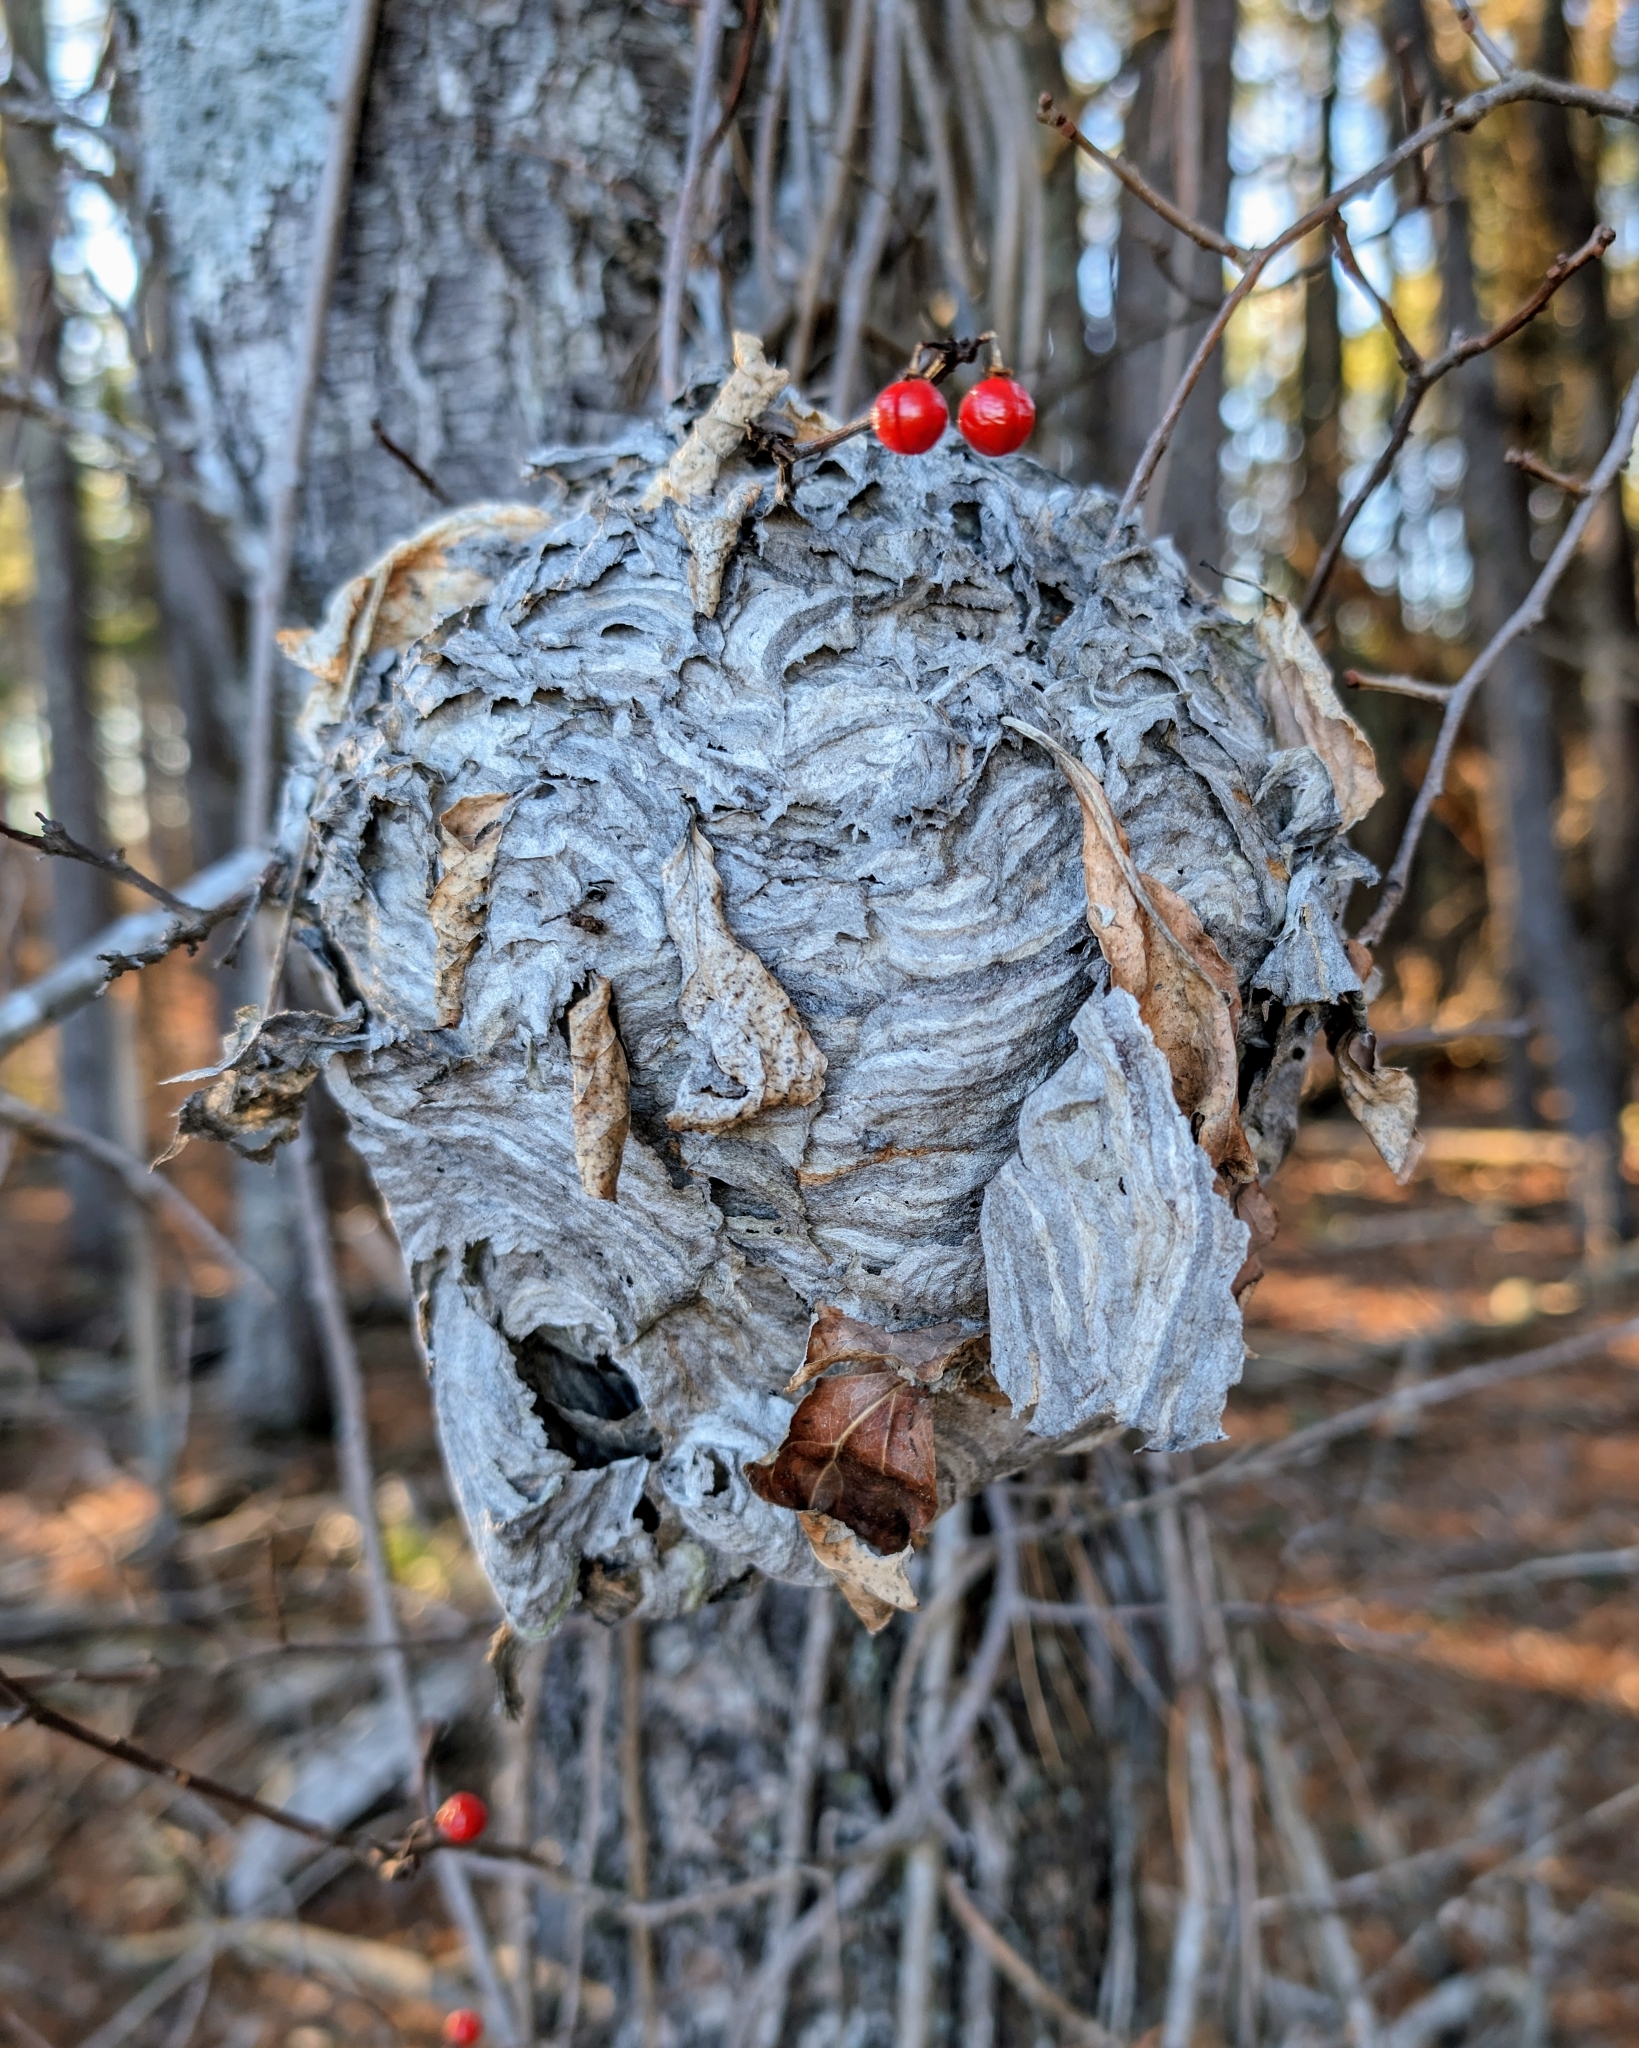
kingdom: Animalia
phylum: Arthropoda
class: Insecta
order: Hymenoptera
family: Vespidae
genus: Dolichovespula
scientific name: Dolichovespula maculata
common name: Bald-faced hornet
